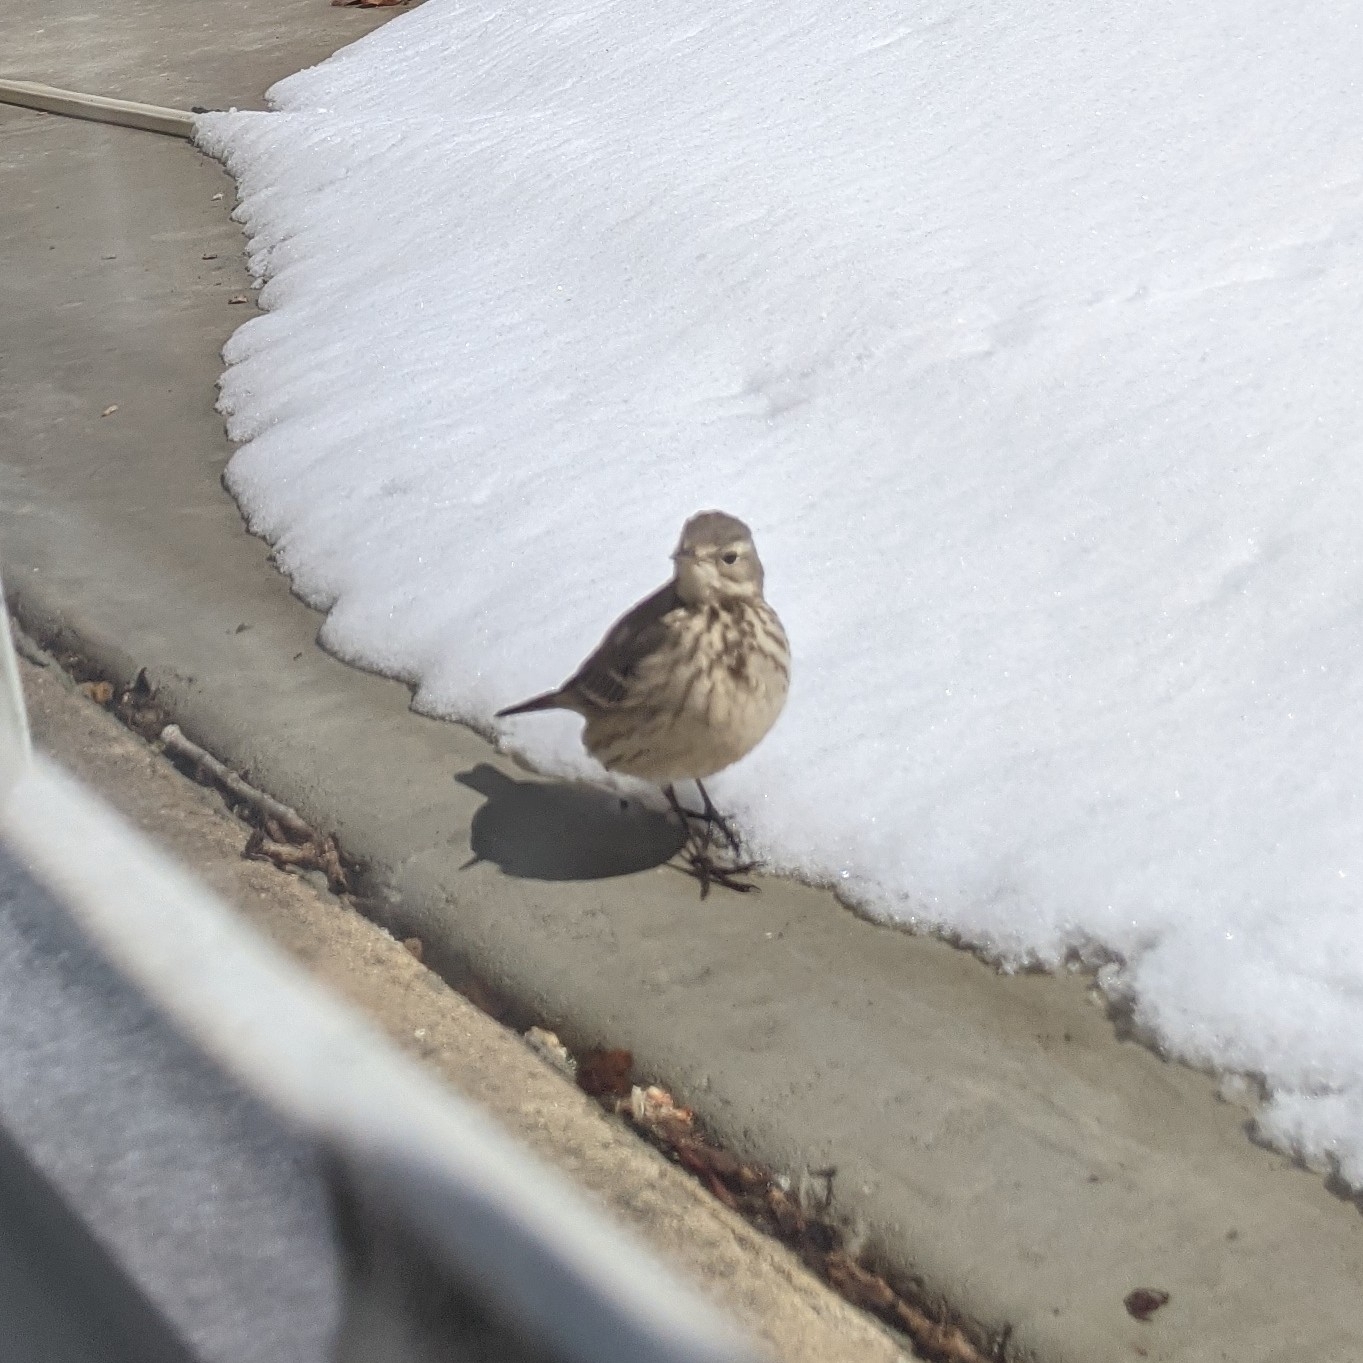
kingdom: Animalia
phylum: Chordata
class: Aves
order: Passeriformes
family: Motacillidae
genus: Anthus
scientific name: Anthus rubescens
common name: Buff-bellied pipit
